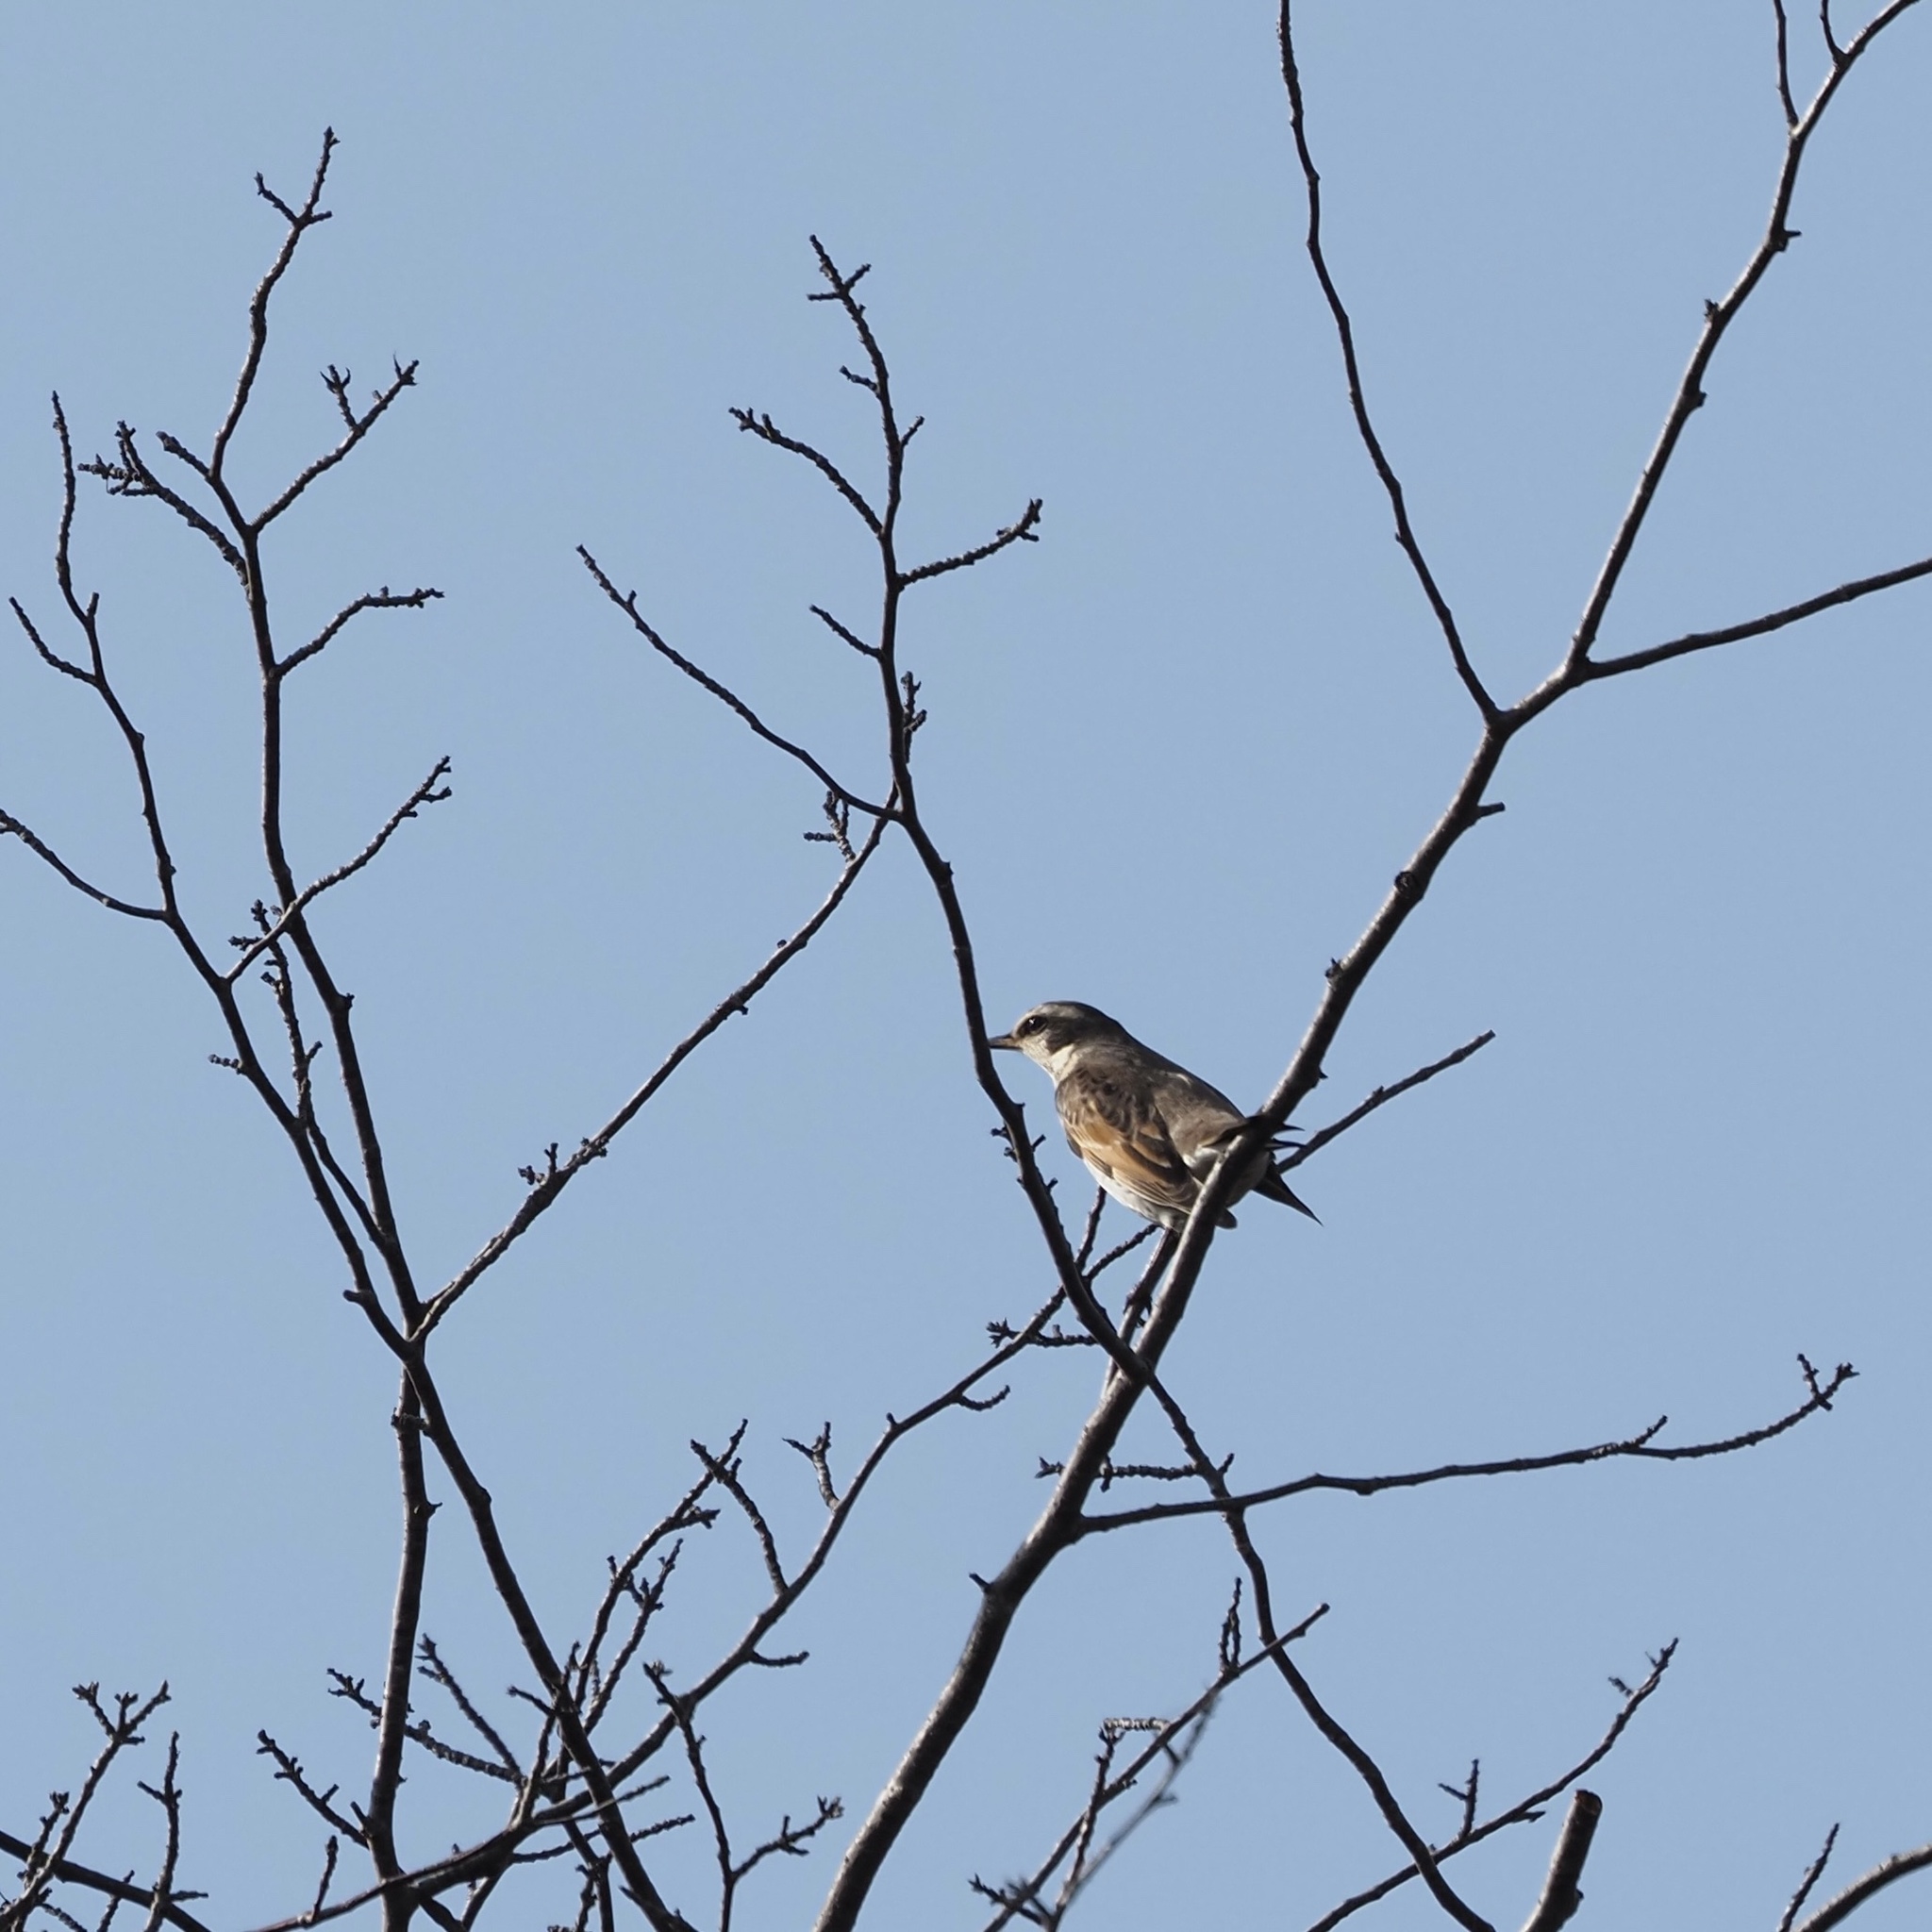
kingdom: Animalia
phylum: Chordata
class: Aves
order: Passeriformes
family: Turdidae
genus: Turdus
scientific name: Turdus eunomus
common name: Dusky thrush
